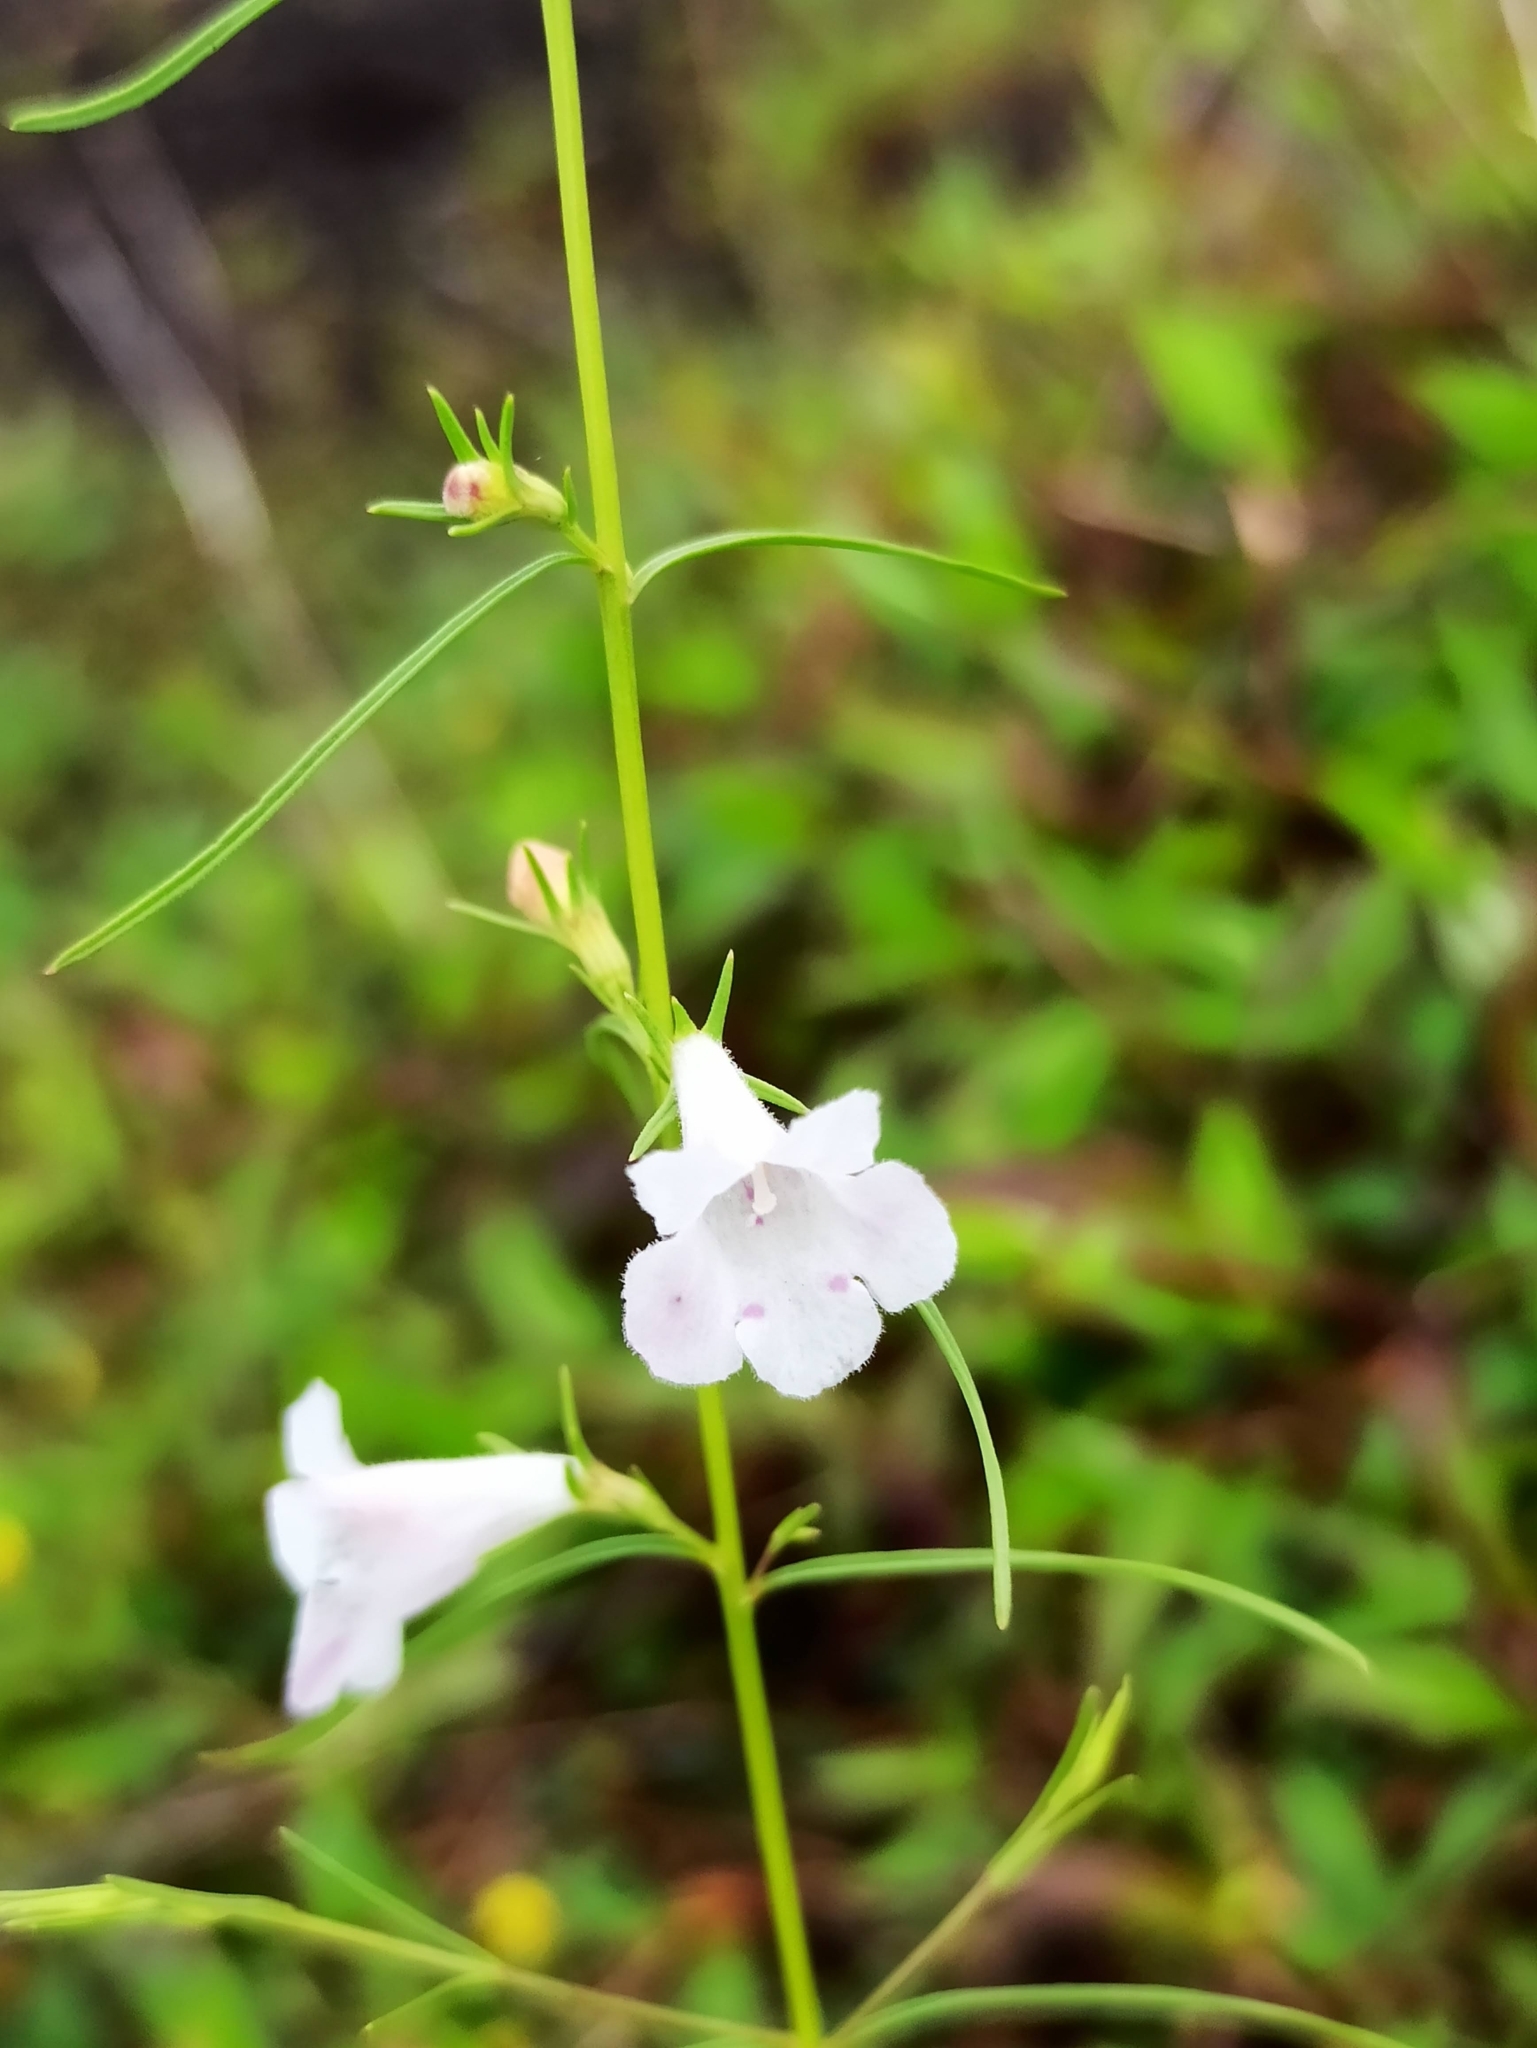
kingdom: Plantae
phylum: Tracheophyta
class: Magnoliopsida
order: Lamiales
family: Orobanchaceae
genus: Parasopubia
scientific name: Parasopubia hofmannii
